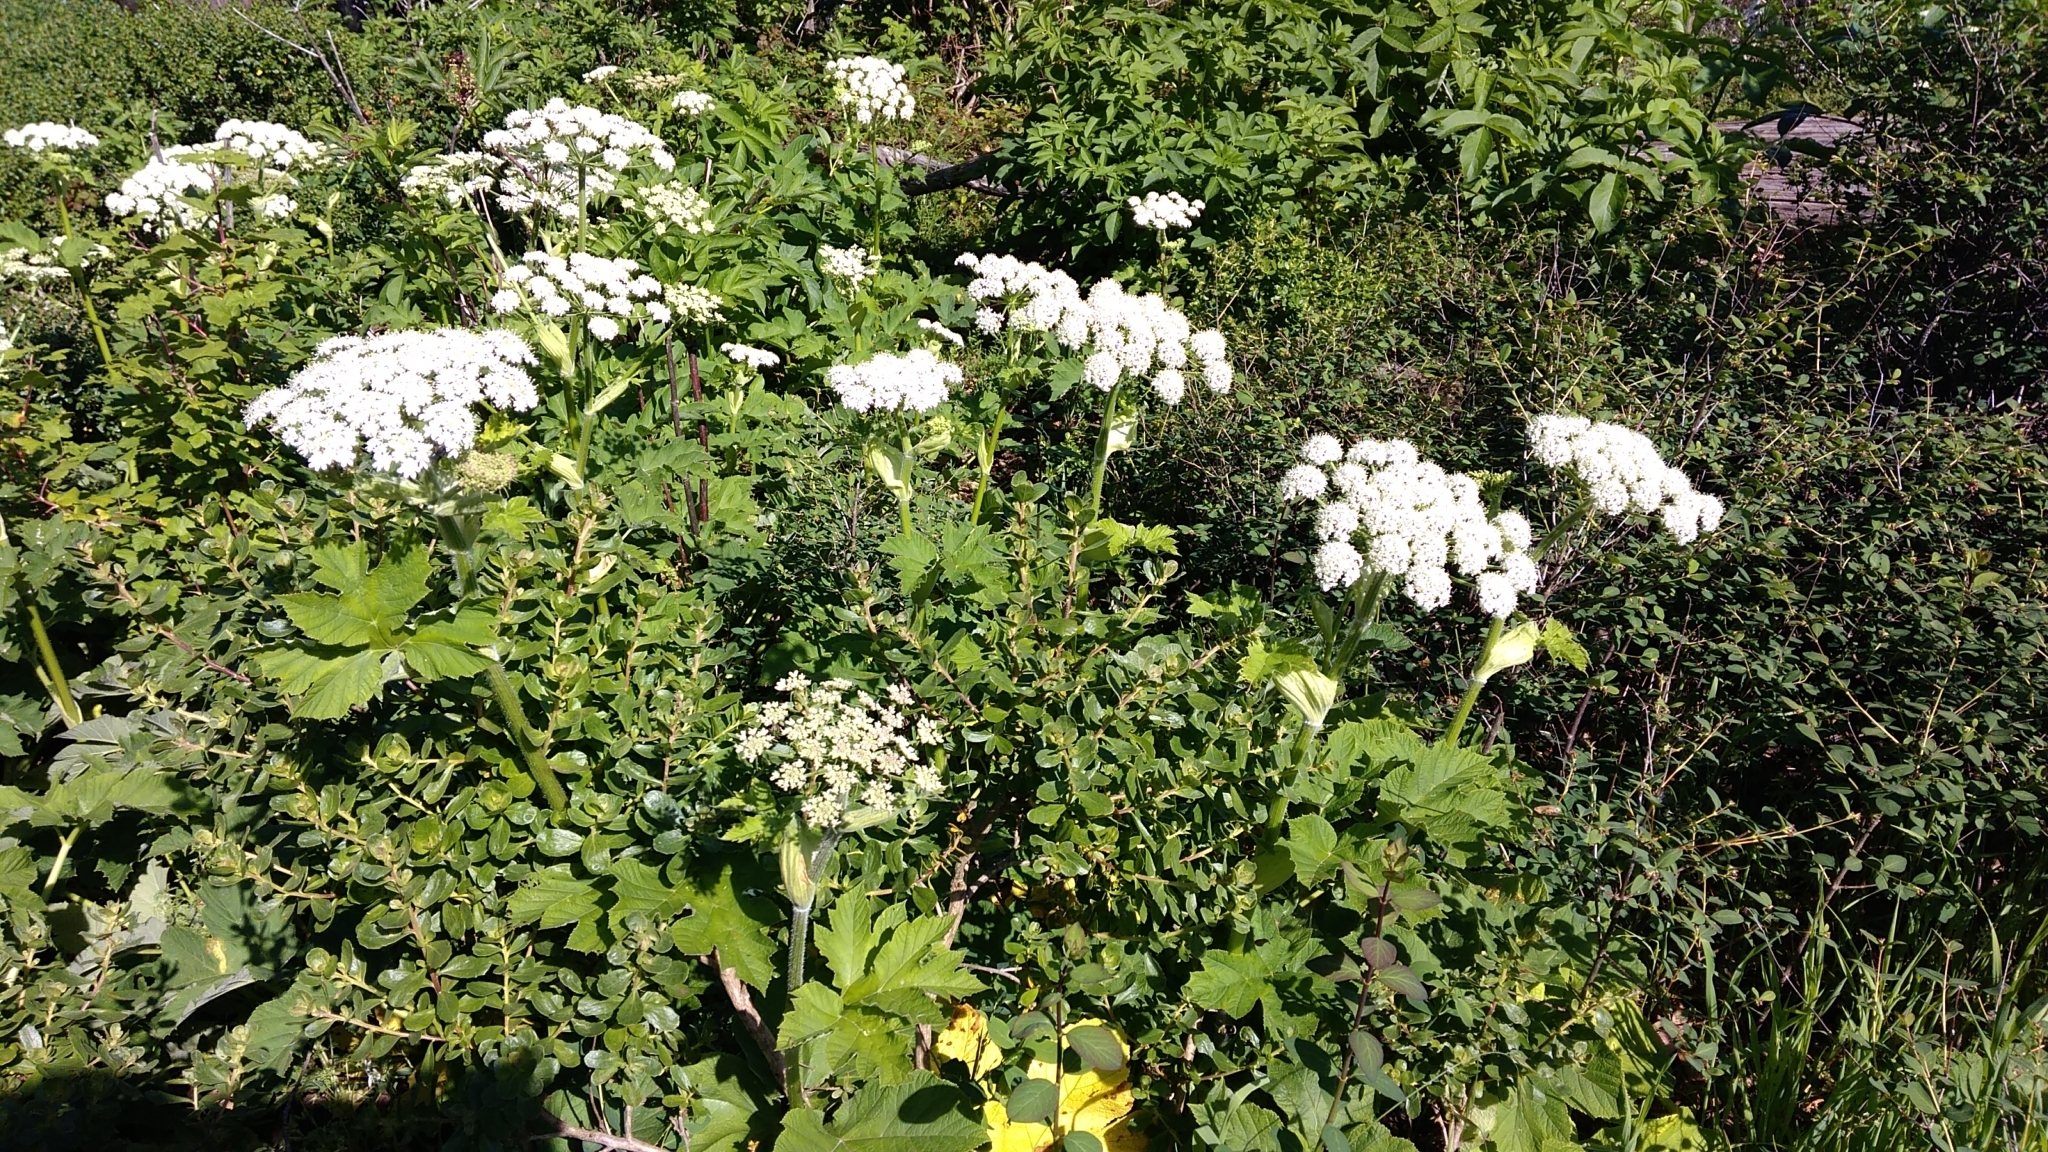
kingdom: Plantae
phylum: Tracheophyta
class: Magnoliopsida
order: Apiales
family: Apiaceae
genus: Heracleum
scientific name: Heracleum maximum
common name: American cow parsnip
